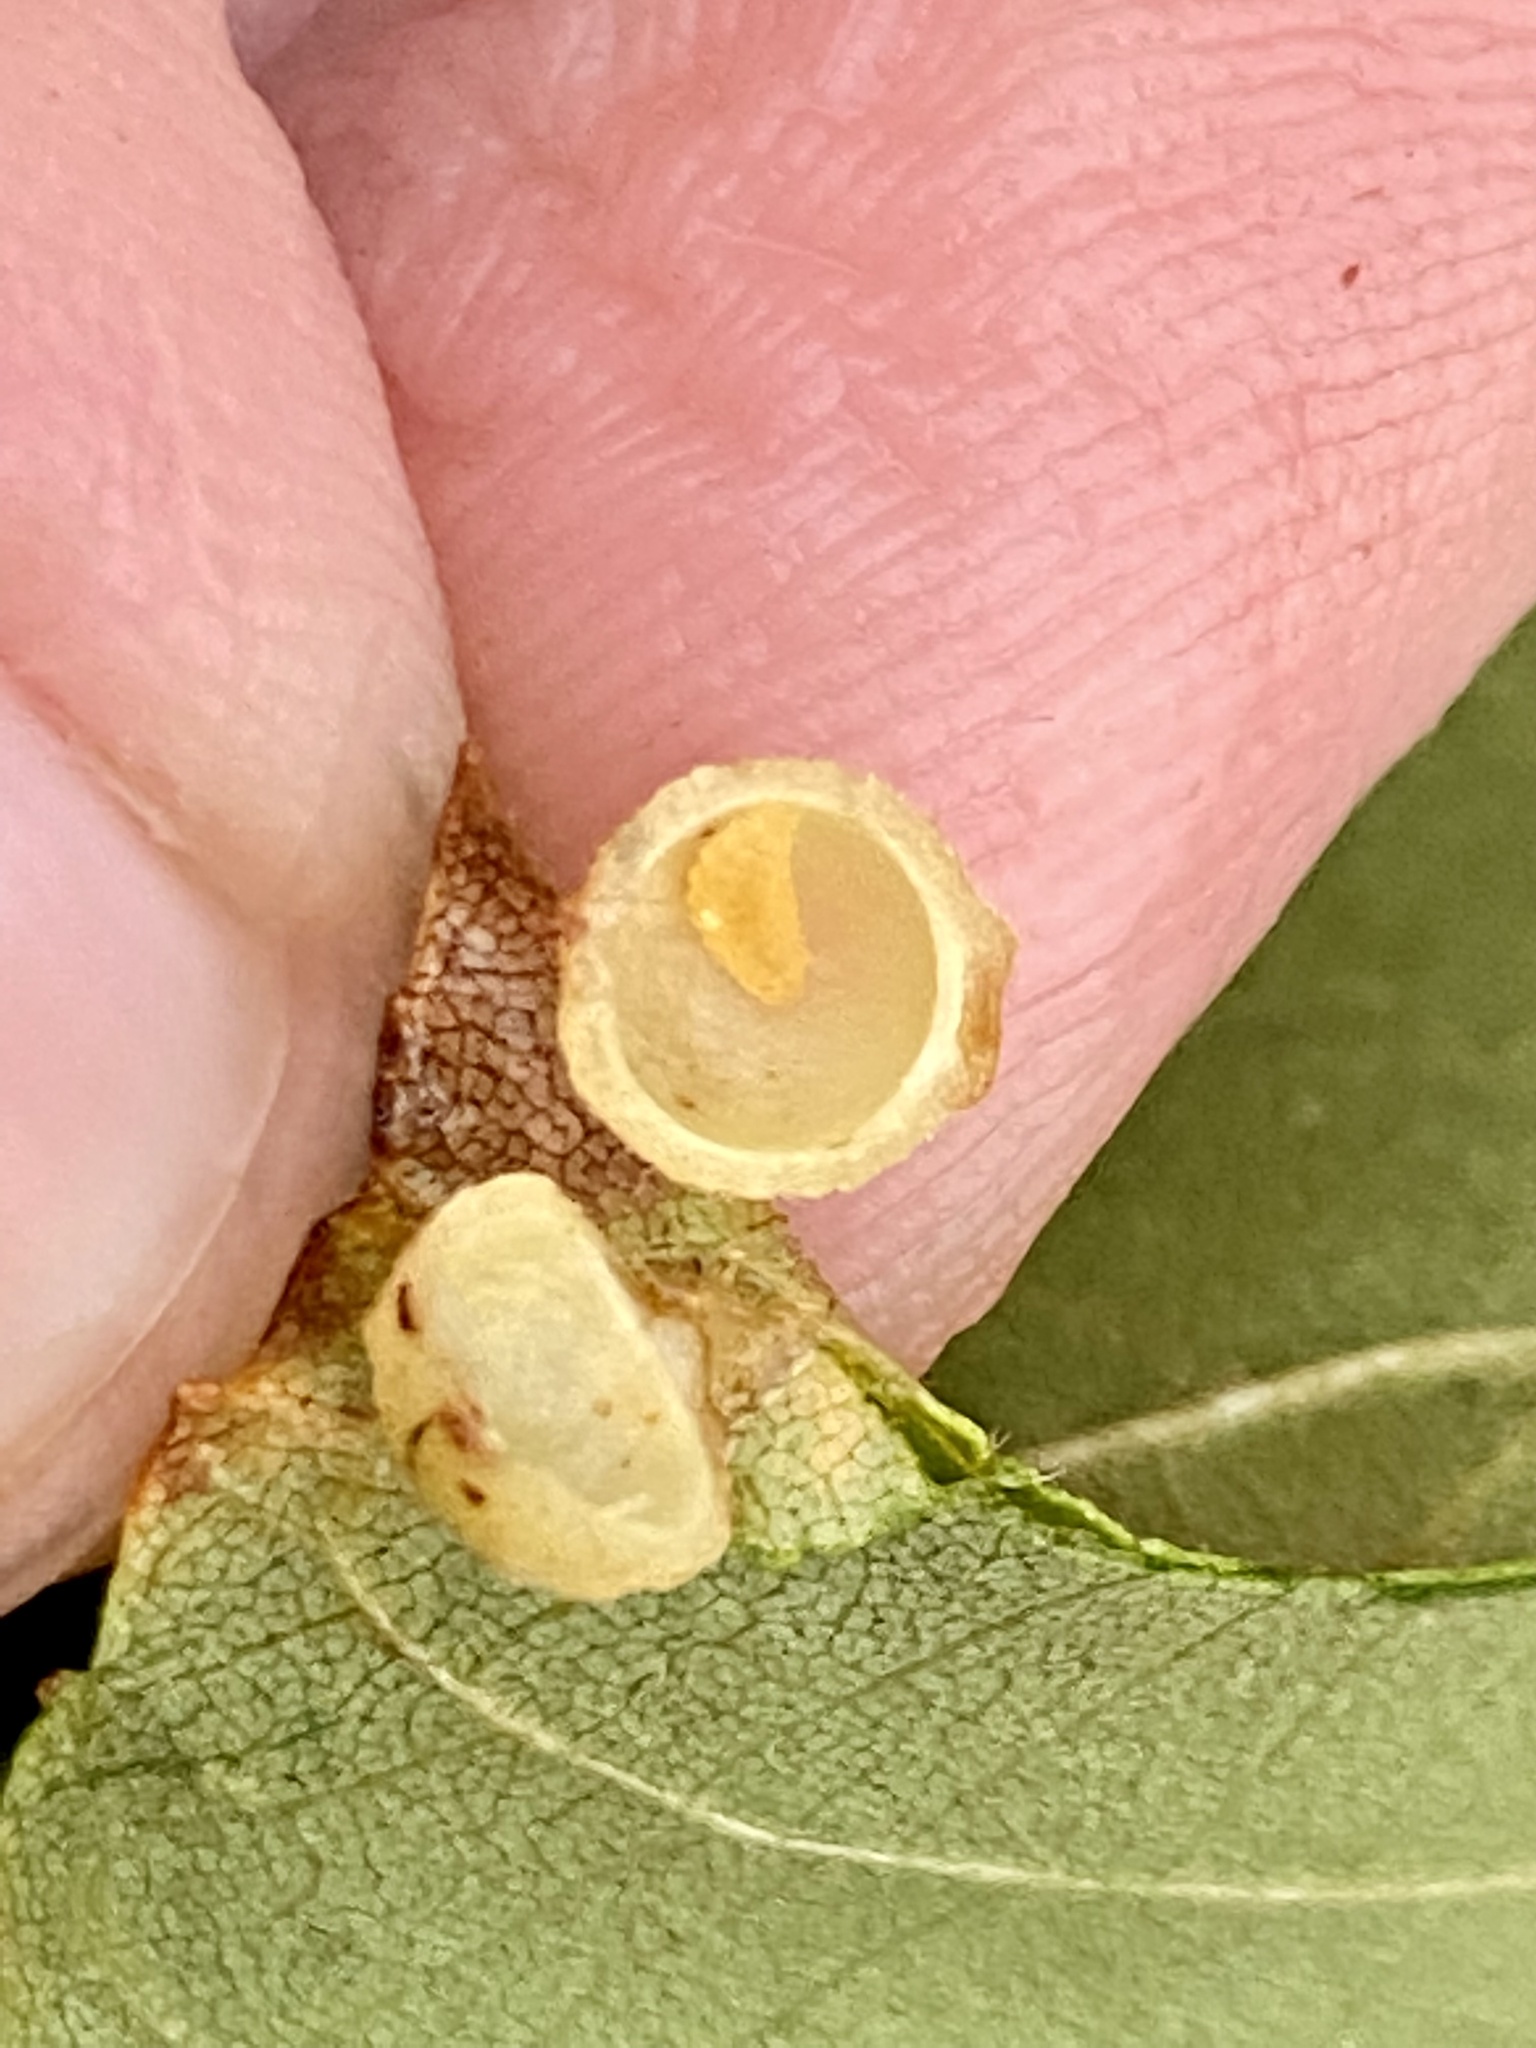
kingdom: Animalia
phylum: Arthropoda
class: Insecta
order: Diptera
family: Cecidomyiidae
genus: Caryomyia
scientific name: Caryomyia tuberidolium
